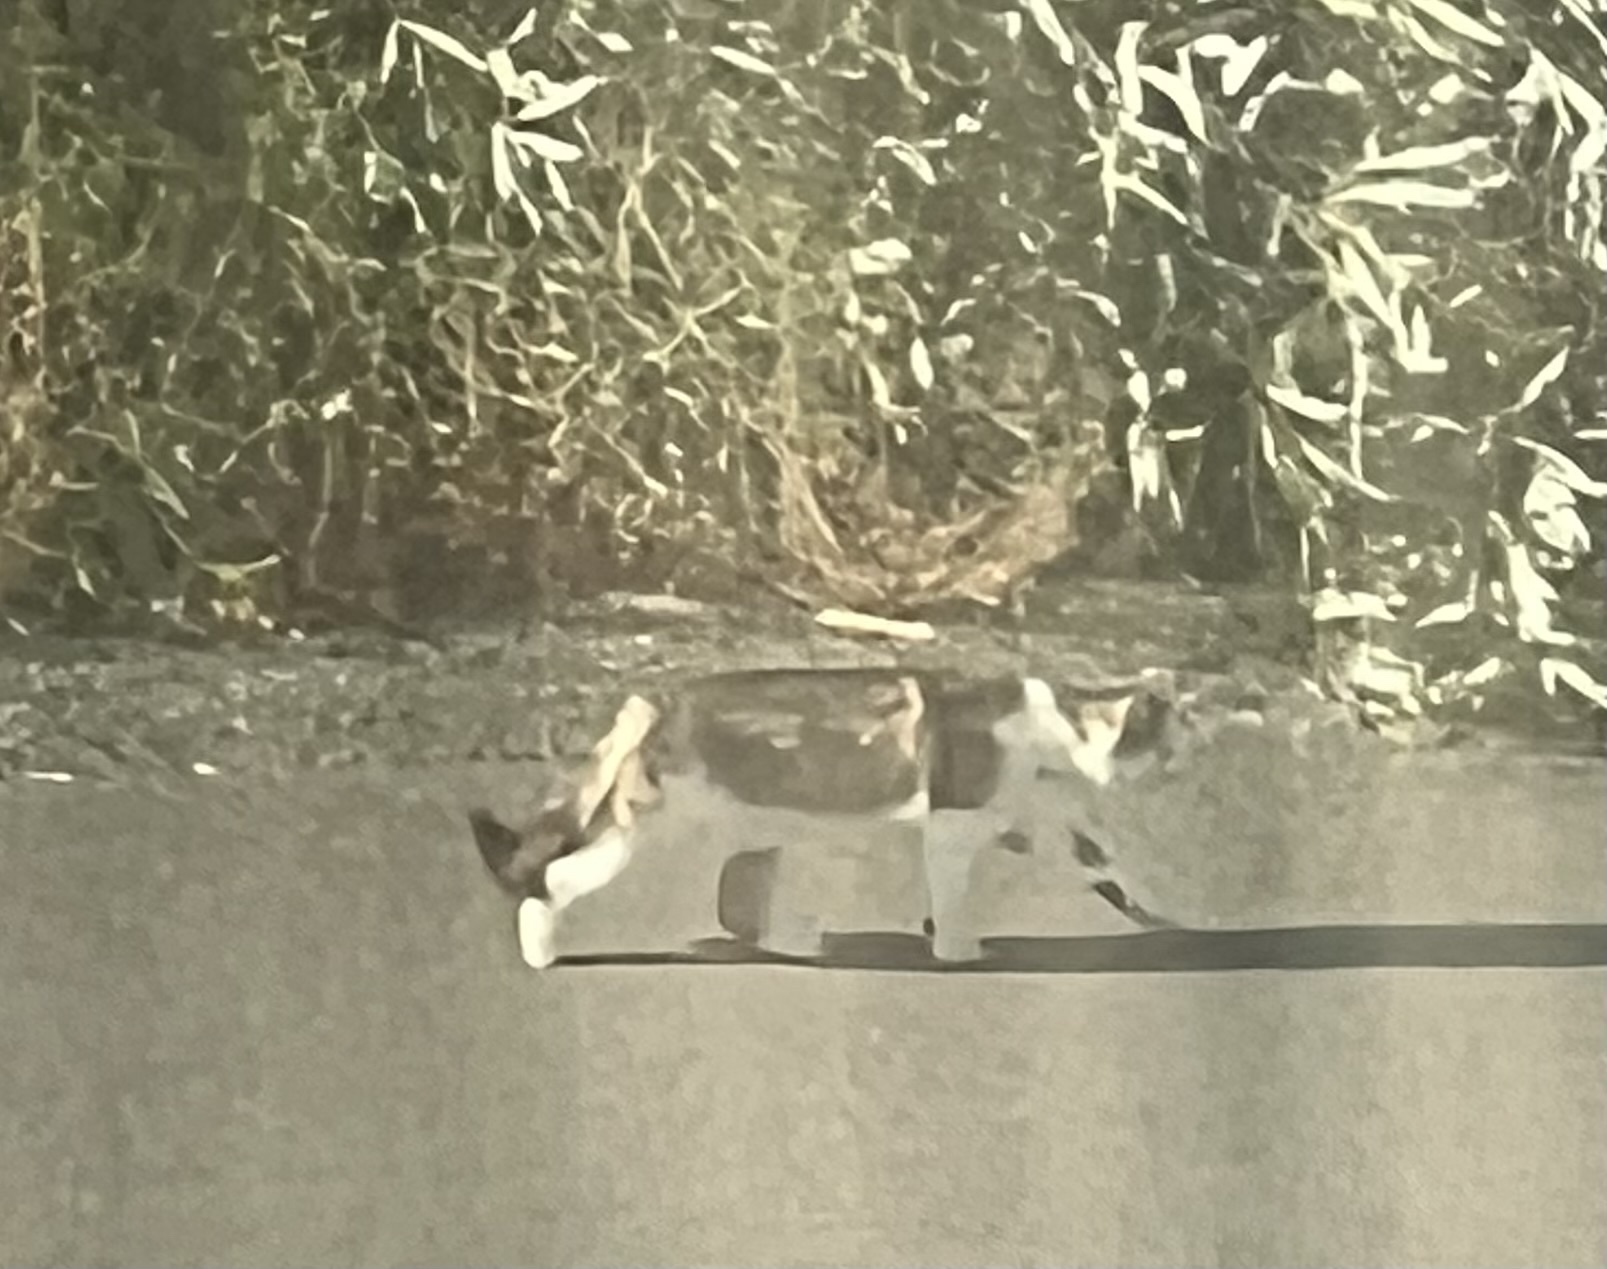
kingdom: Animalia
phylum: Chordata
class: Mammalia
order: Carnivora
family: Felidae
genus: Felis
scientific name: Felis catus
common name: Domestic cat
